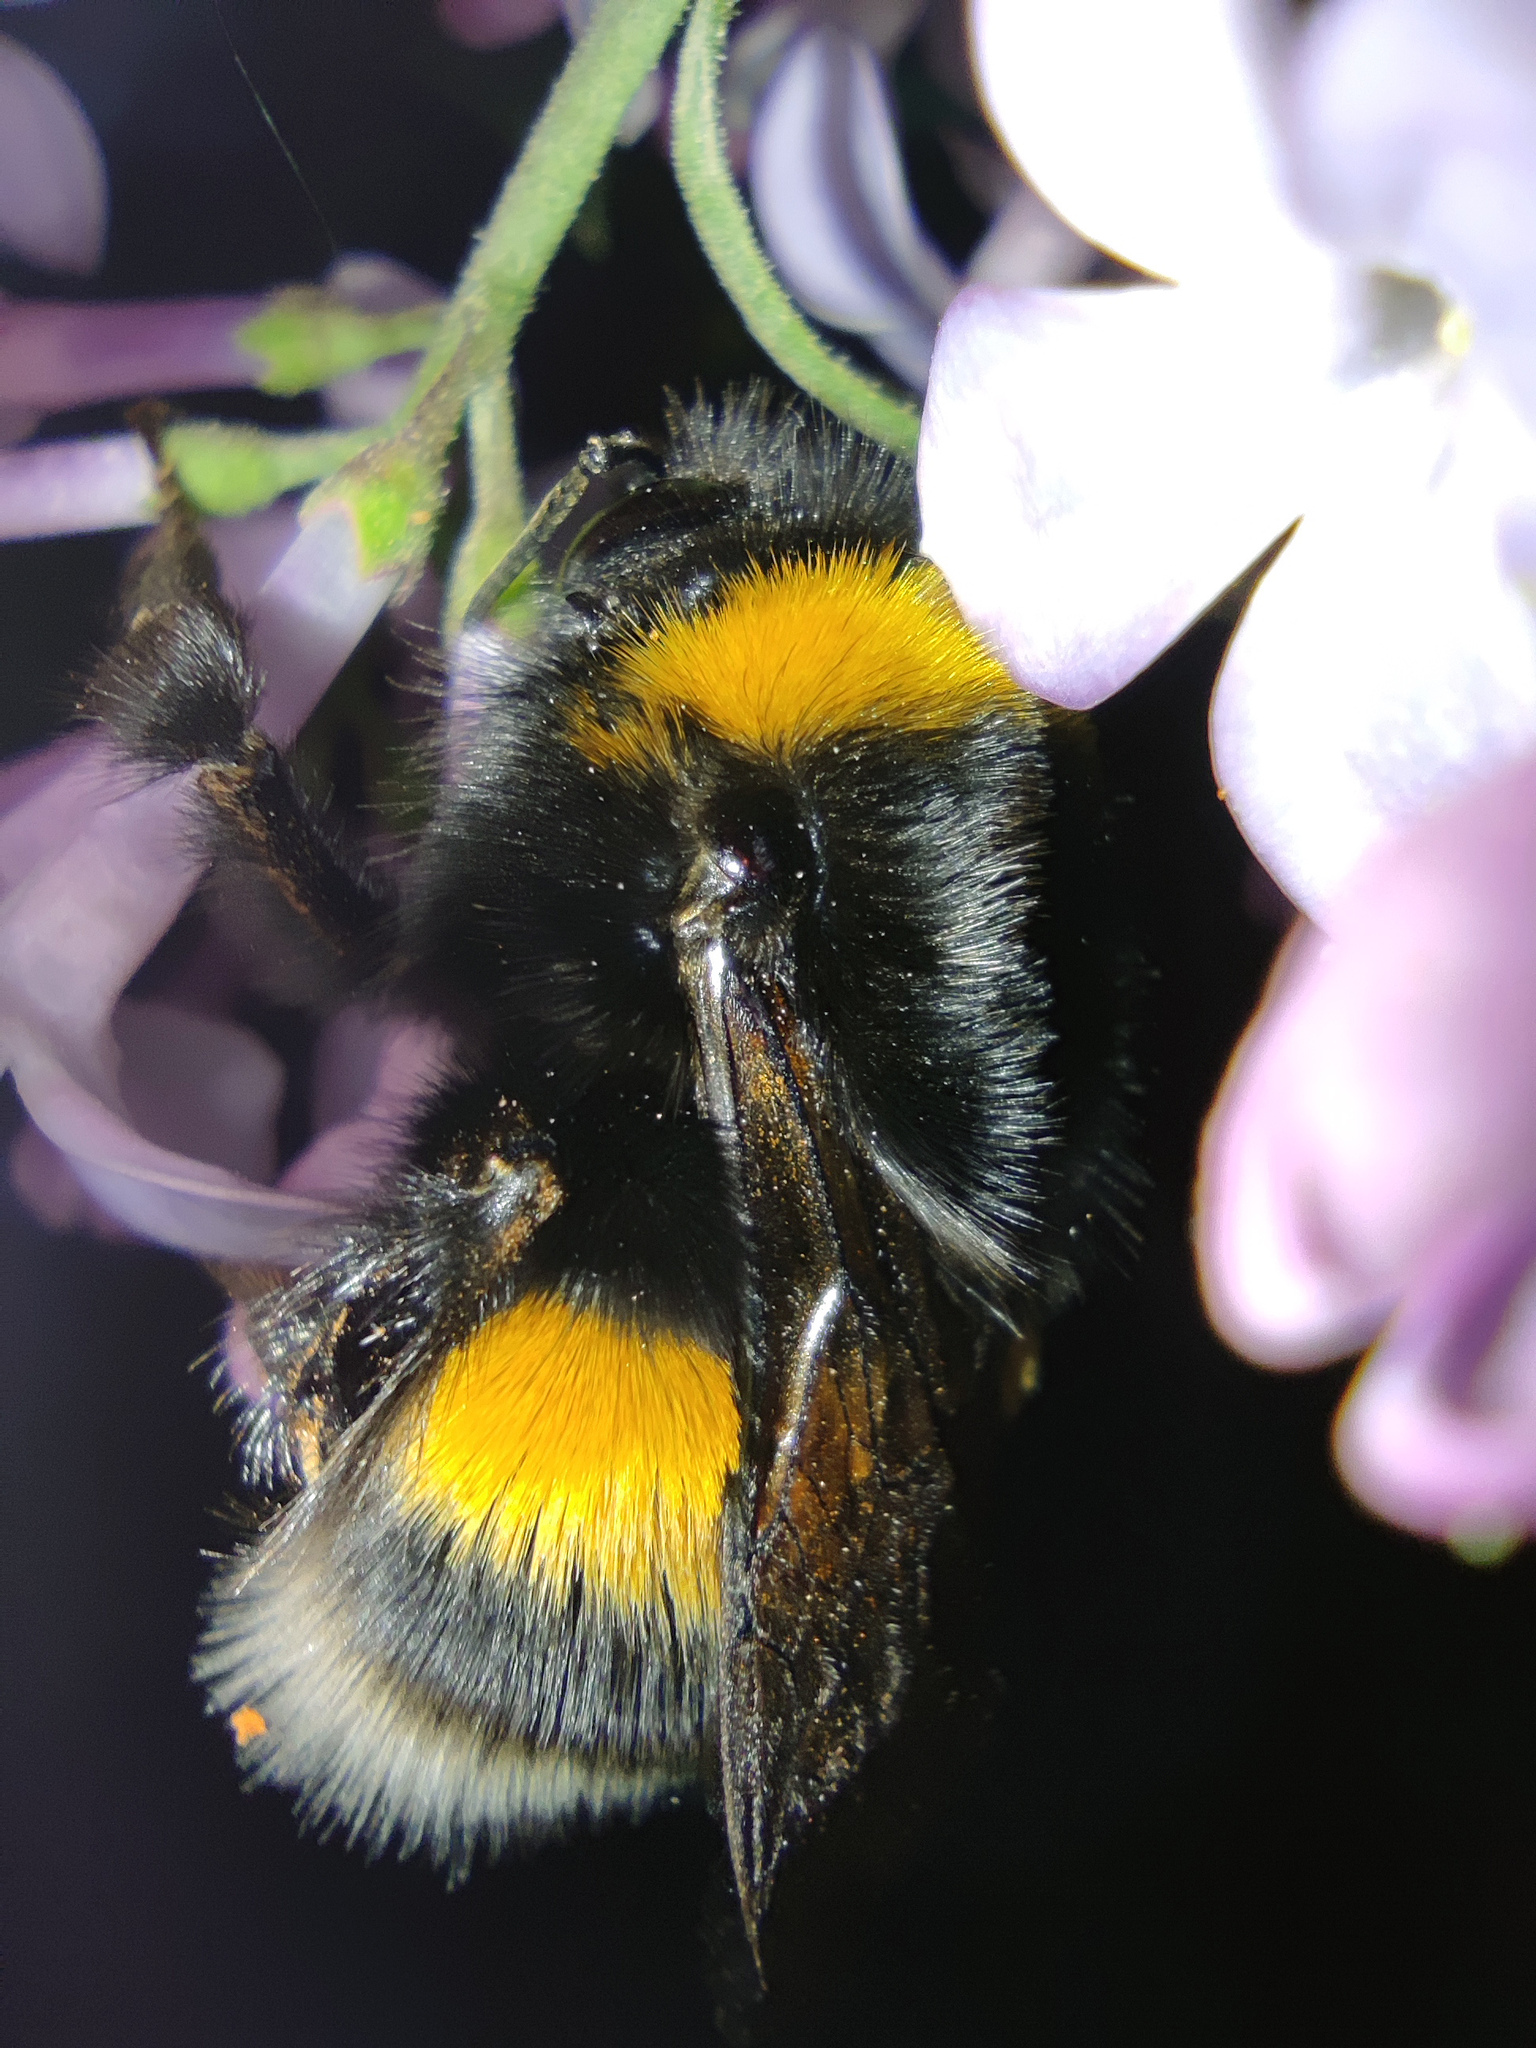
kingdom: Animalia
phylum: Arthropoda
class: Insecta
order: Hymenoptera
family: Apidae
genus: Bombus
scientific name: Bombus
